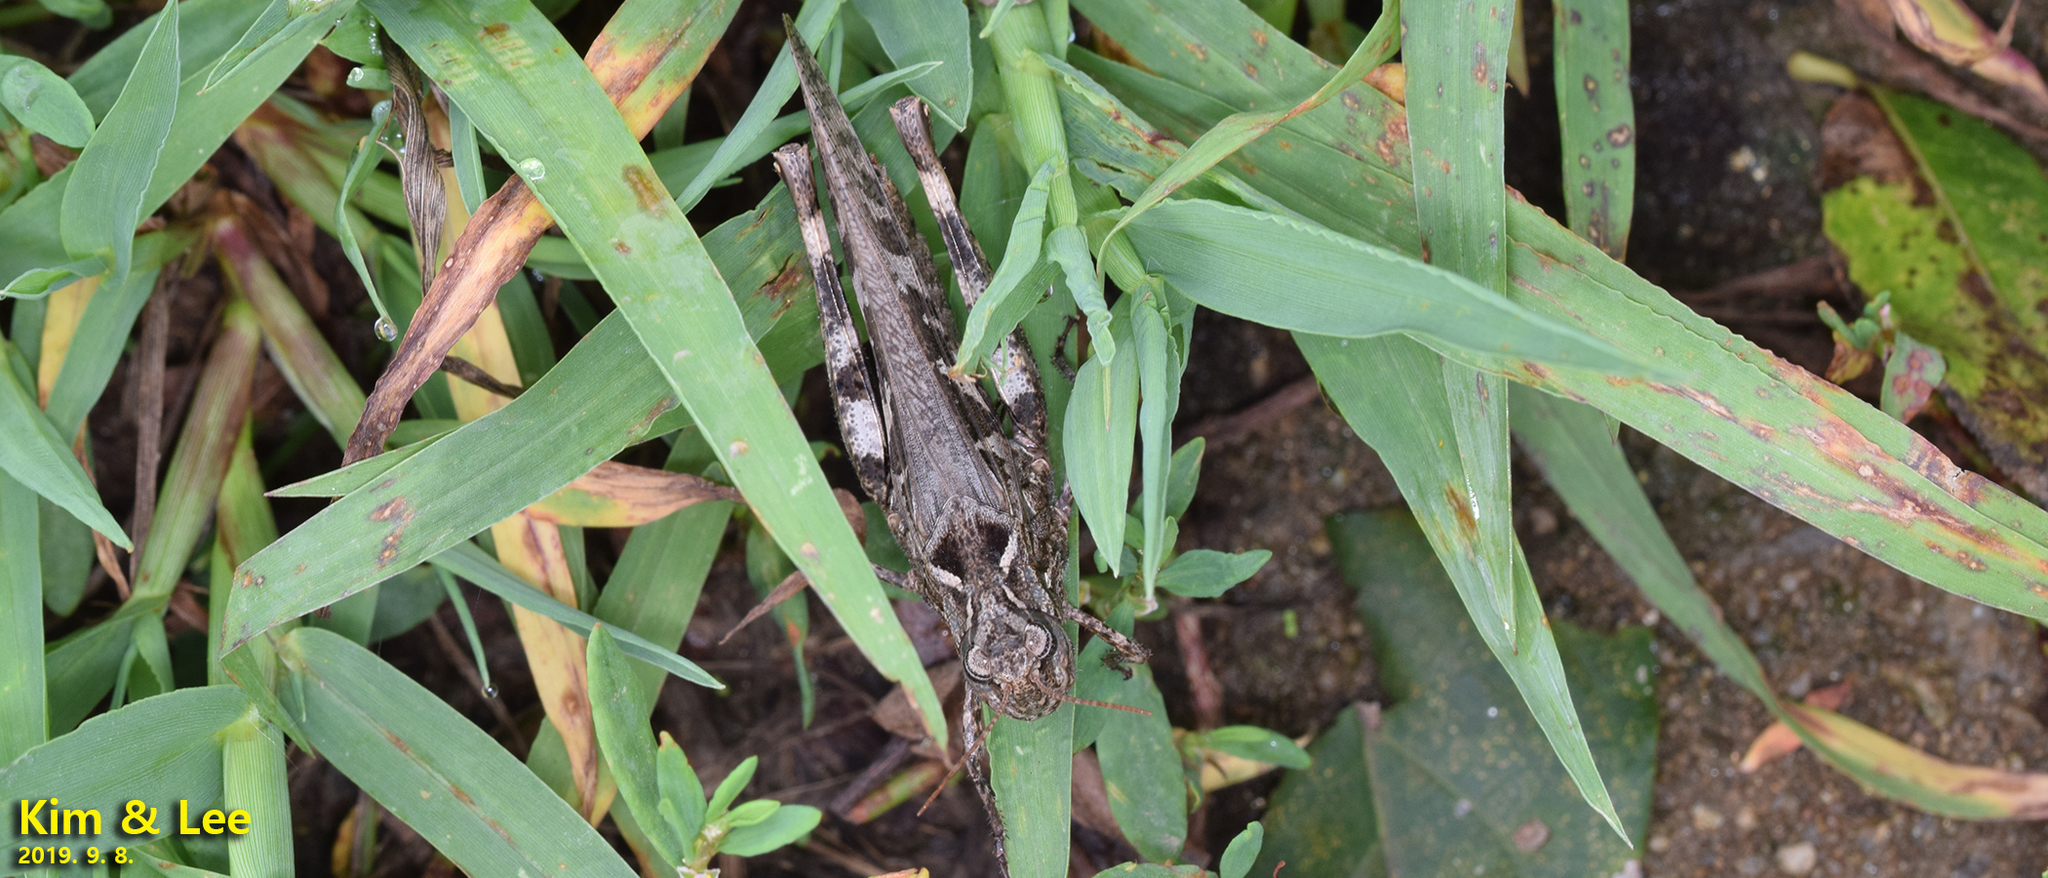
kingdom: Animalia
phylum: Arthropoda
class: Insecta
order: Orthoptera
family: Acrididae
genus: Oedaleus
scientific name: Oedaleus infernalis
